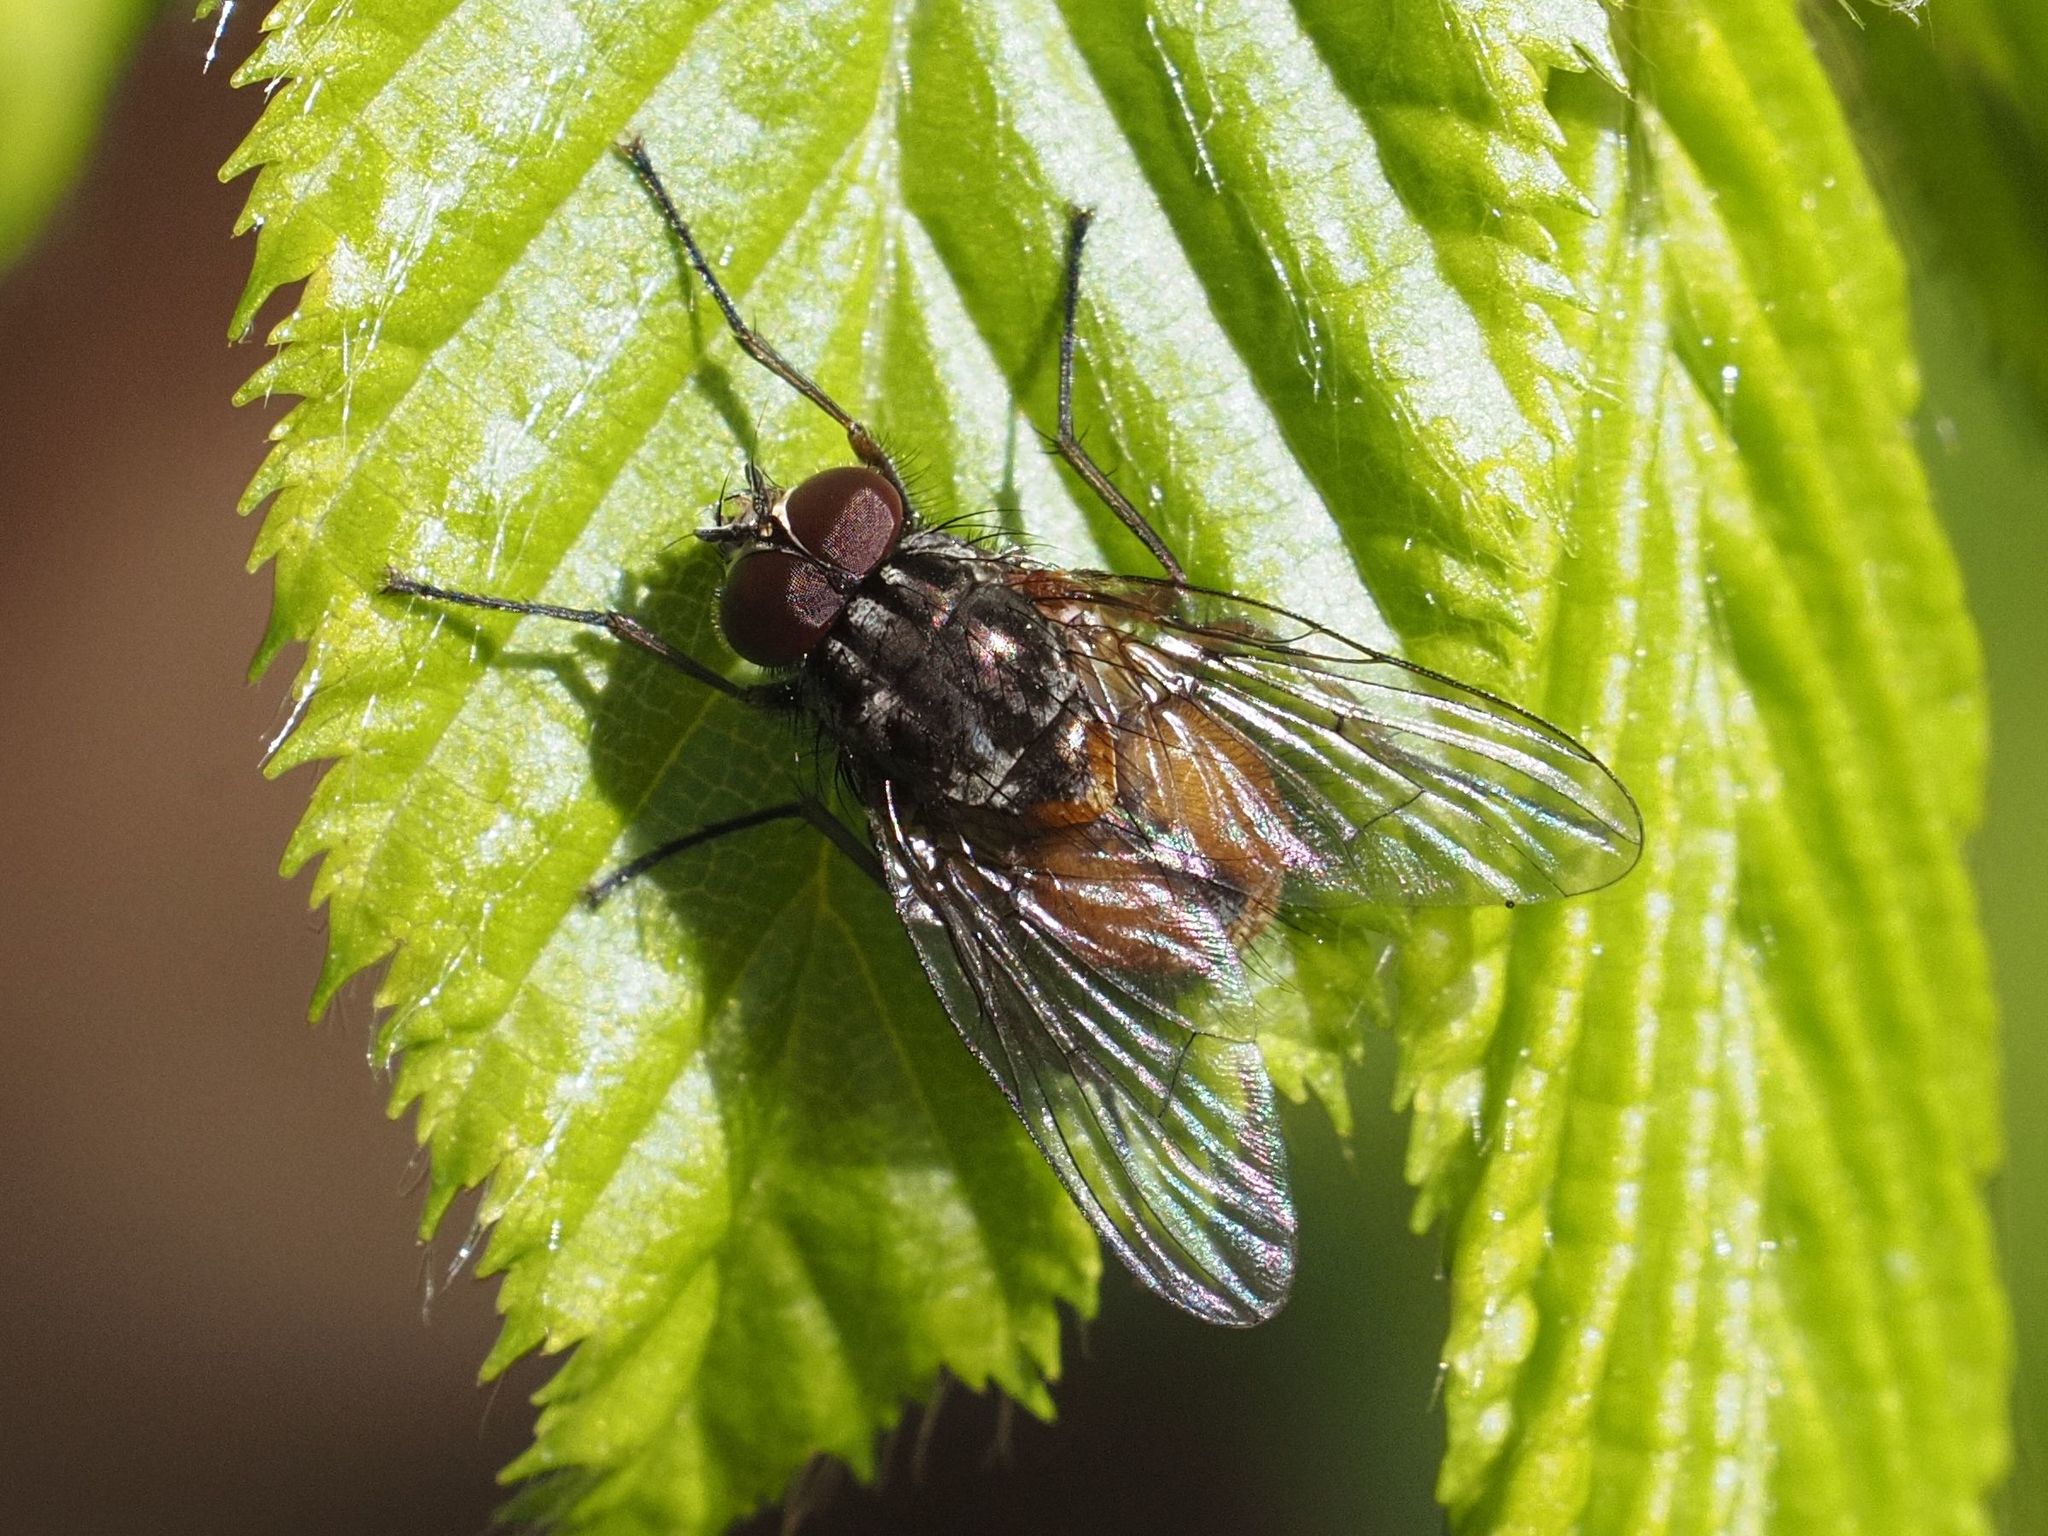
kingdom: Animalia
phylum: Arthropoda
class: Insecta
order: Diptera
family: Muscidae
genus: Phaonia
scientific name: Phaonia subventa
